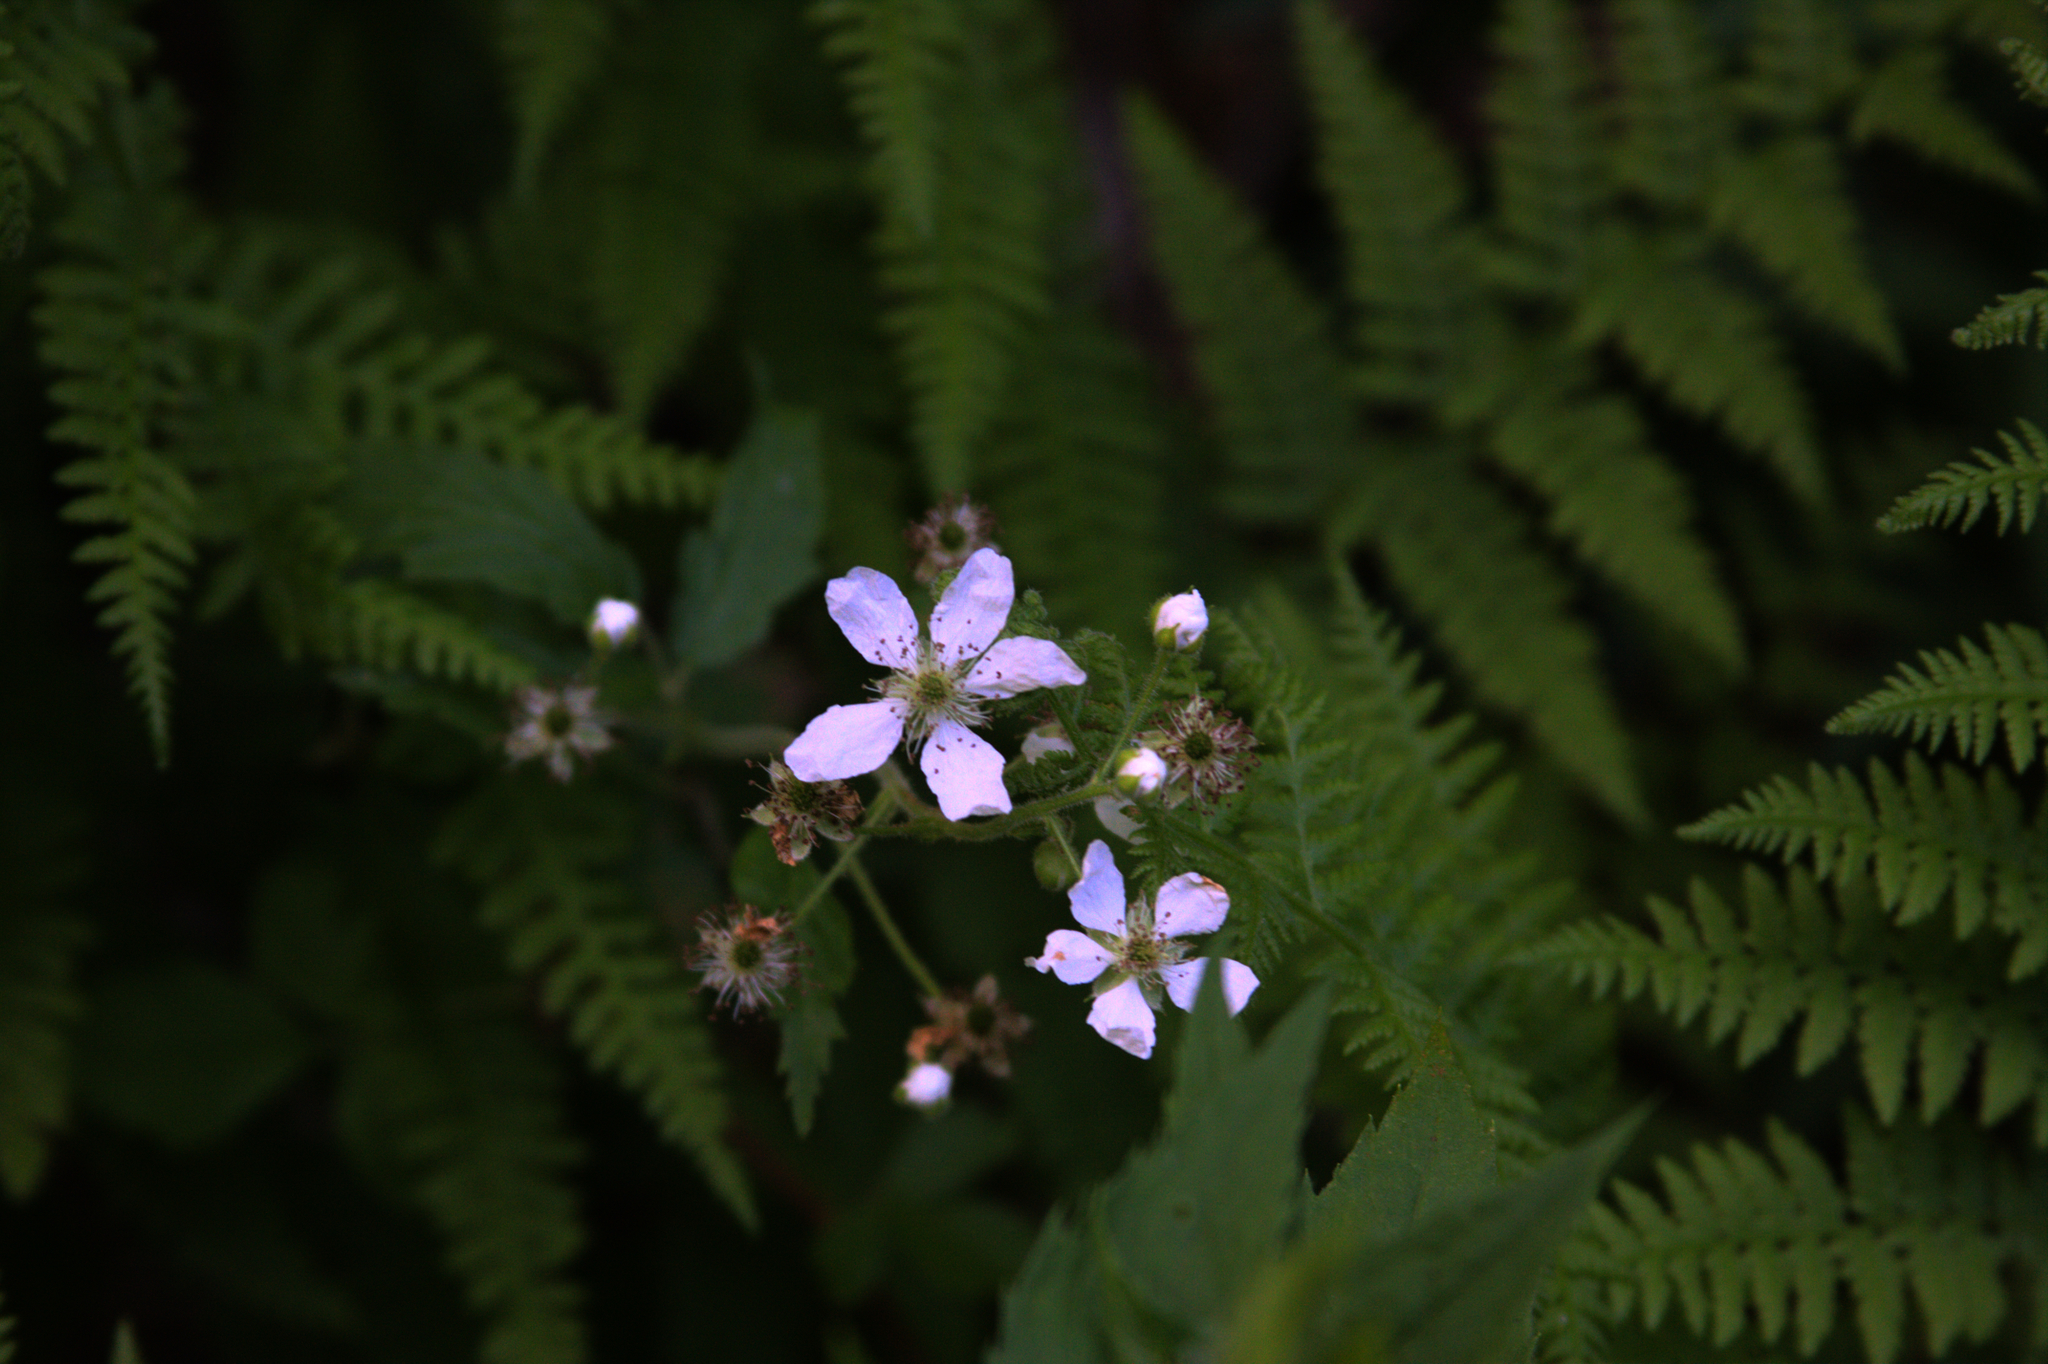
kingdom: Plantae
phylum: Tracheophyta
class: Magnoliopsida
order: Rosales
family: Rosaceae
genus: Rubus
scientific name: Rubus allegheniensis
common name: Allegheny blackberry
